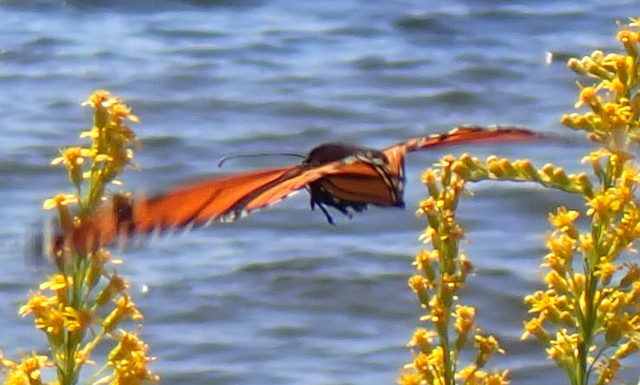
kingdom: Animalia
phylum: Arthropoda
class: Insecta
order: Lepidoptera
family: Nymphalidae
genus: Danaus
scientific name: Danaus plexippus
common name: Monarch
